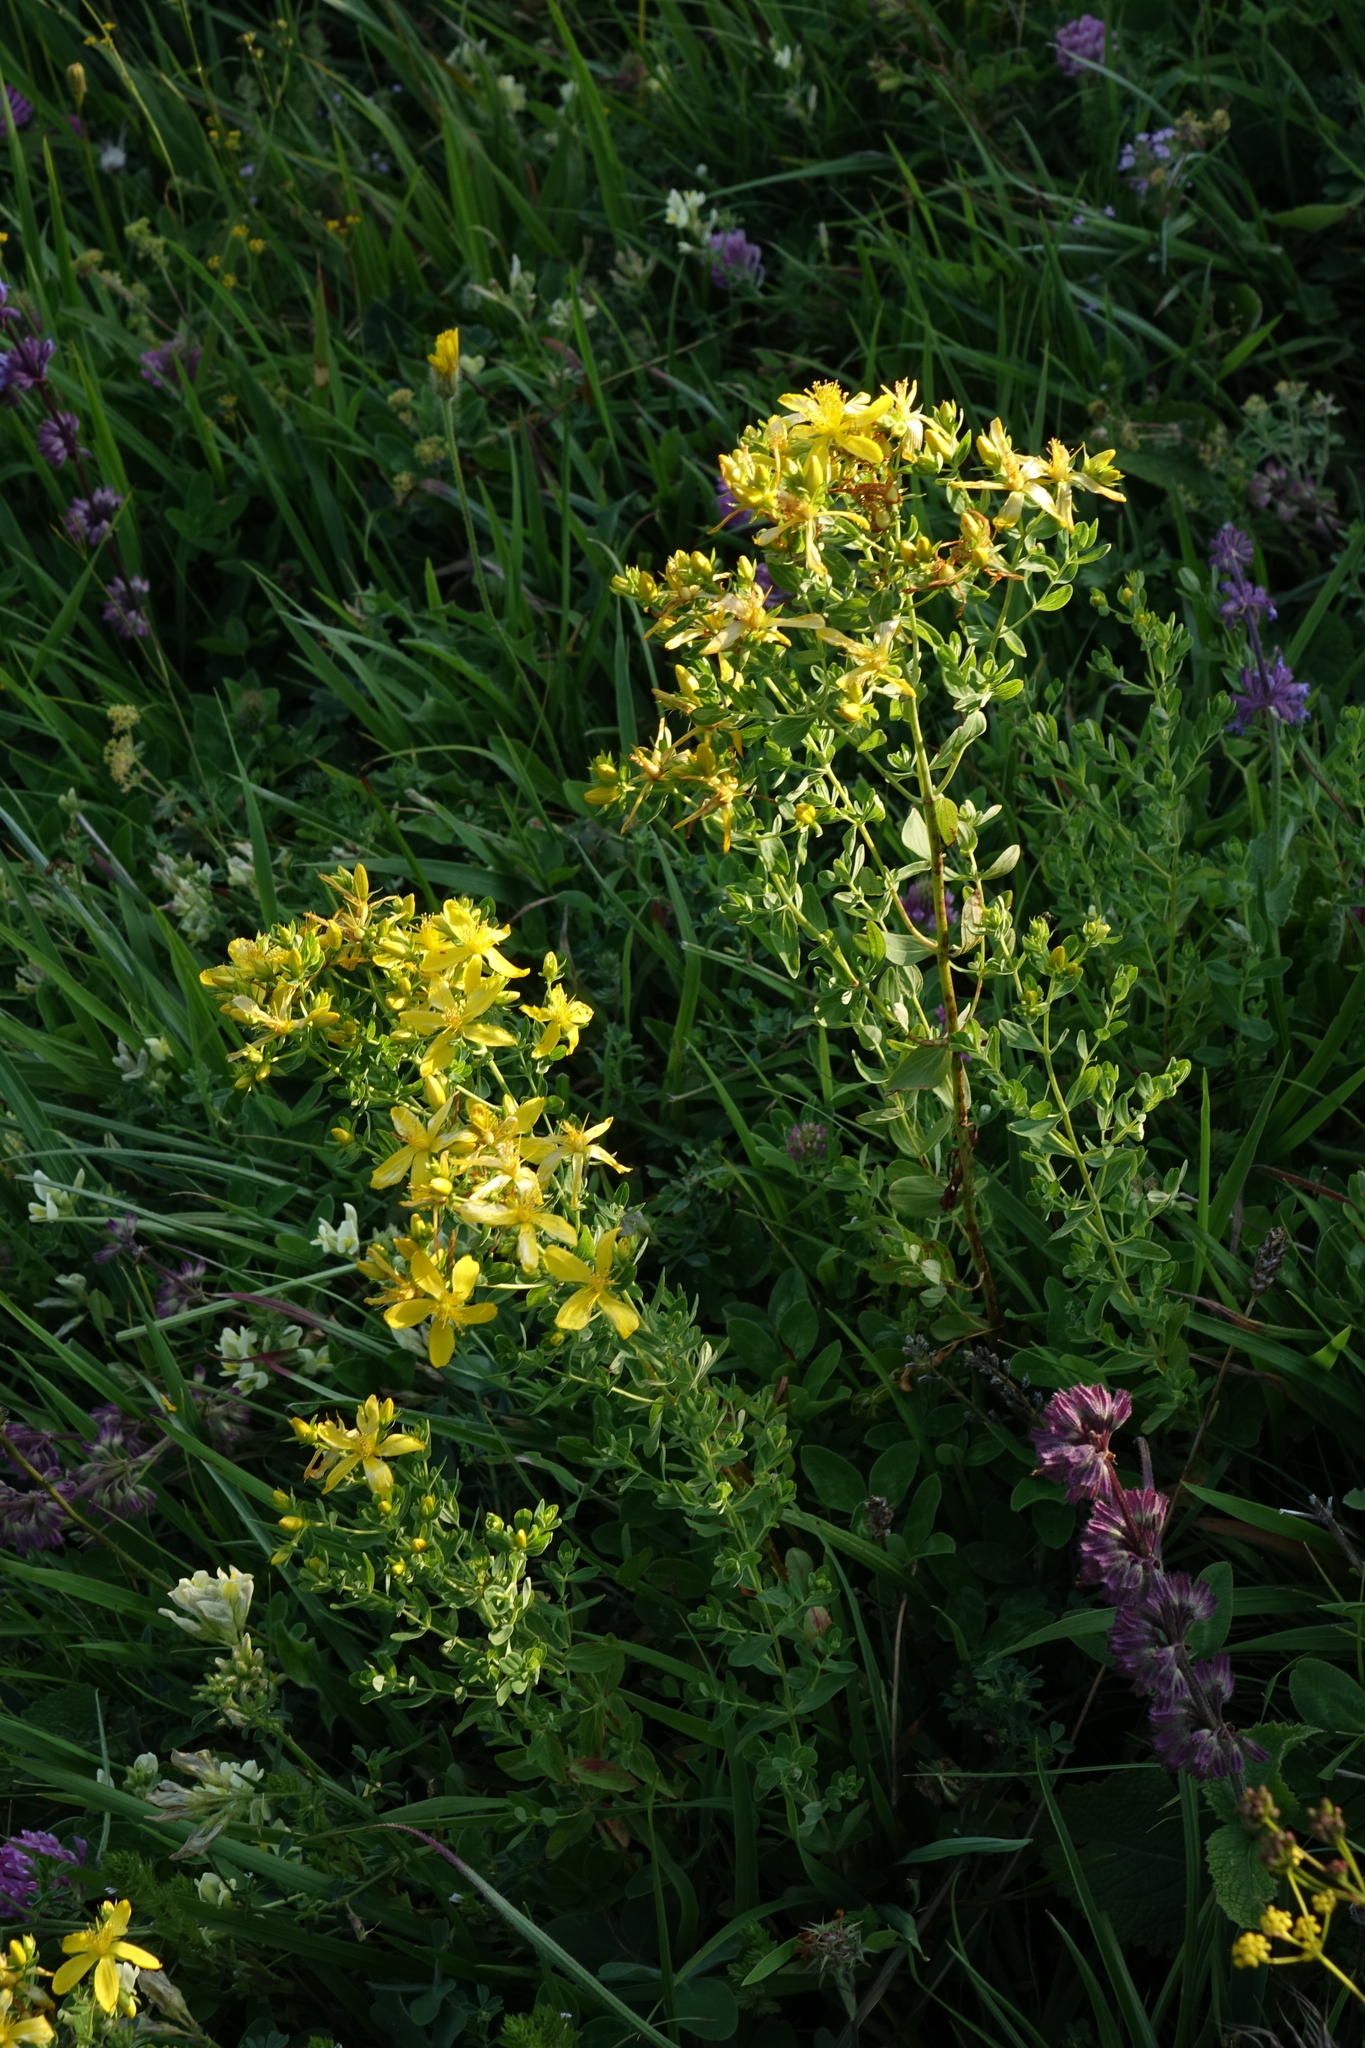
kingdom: Plantae
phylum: Tracheophyta
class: Magnoliopsida
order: Malpighiales
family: Hypericaceae
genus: Hypericum
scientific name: Hypericum perforatum
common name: Common st. johnswort
